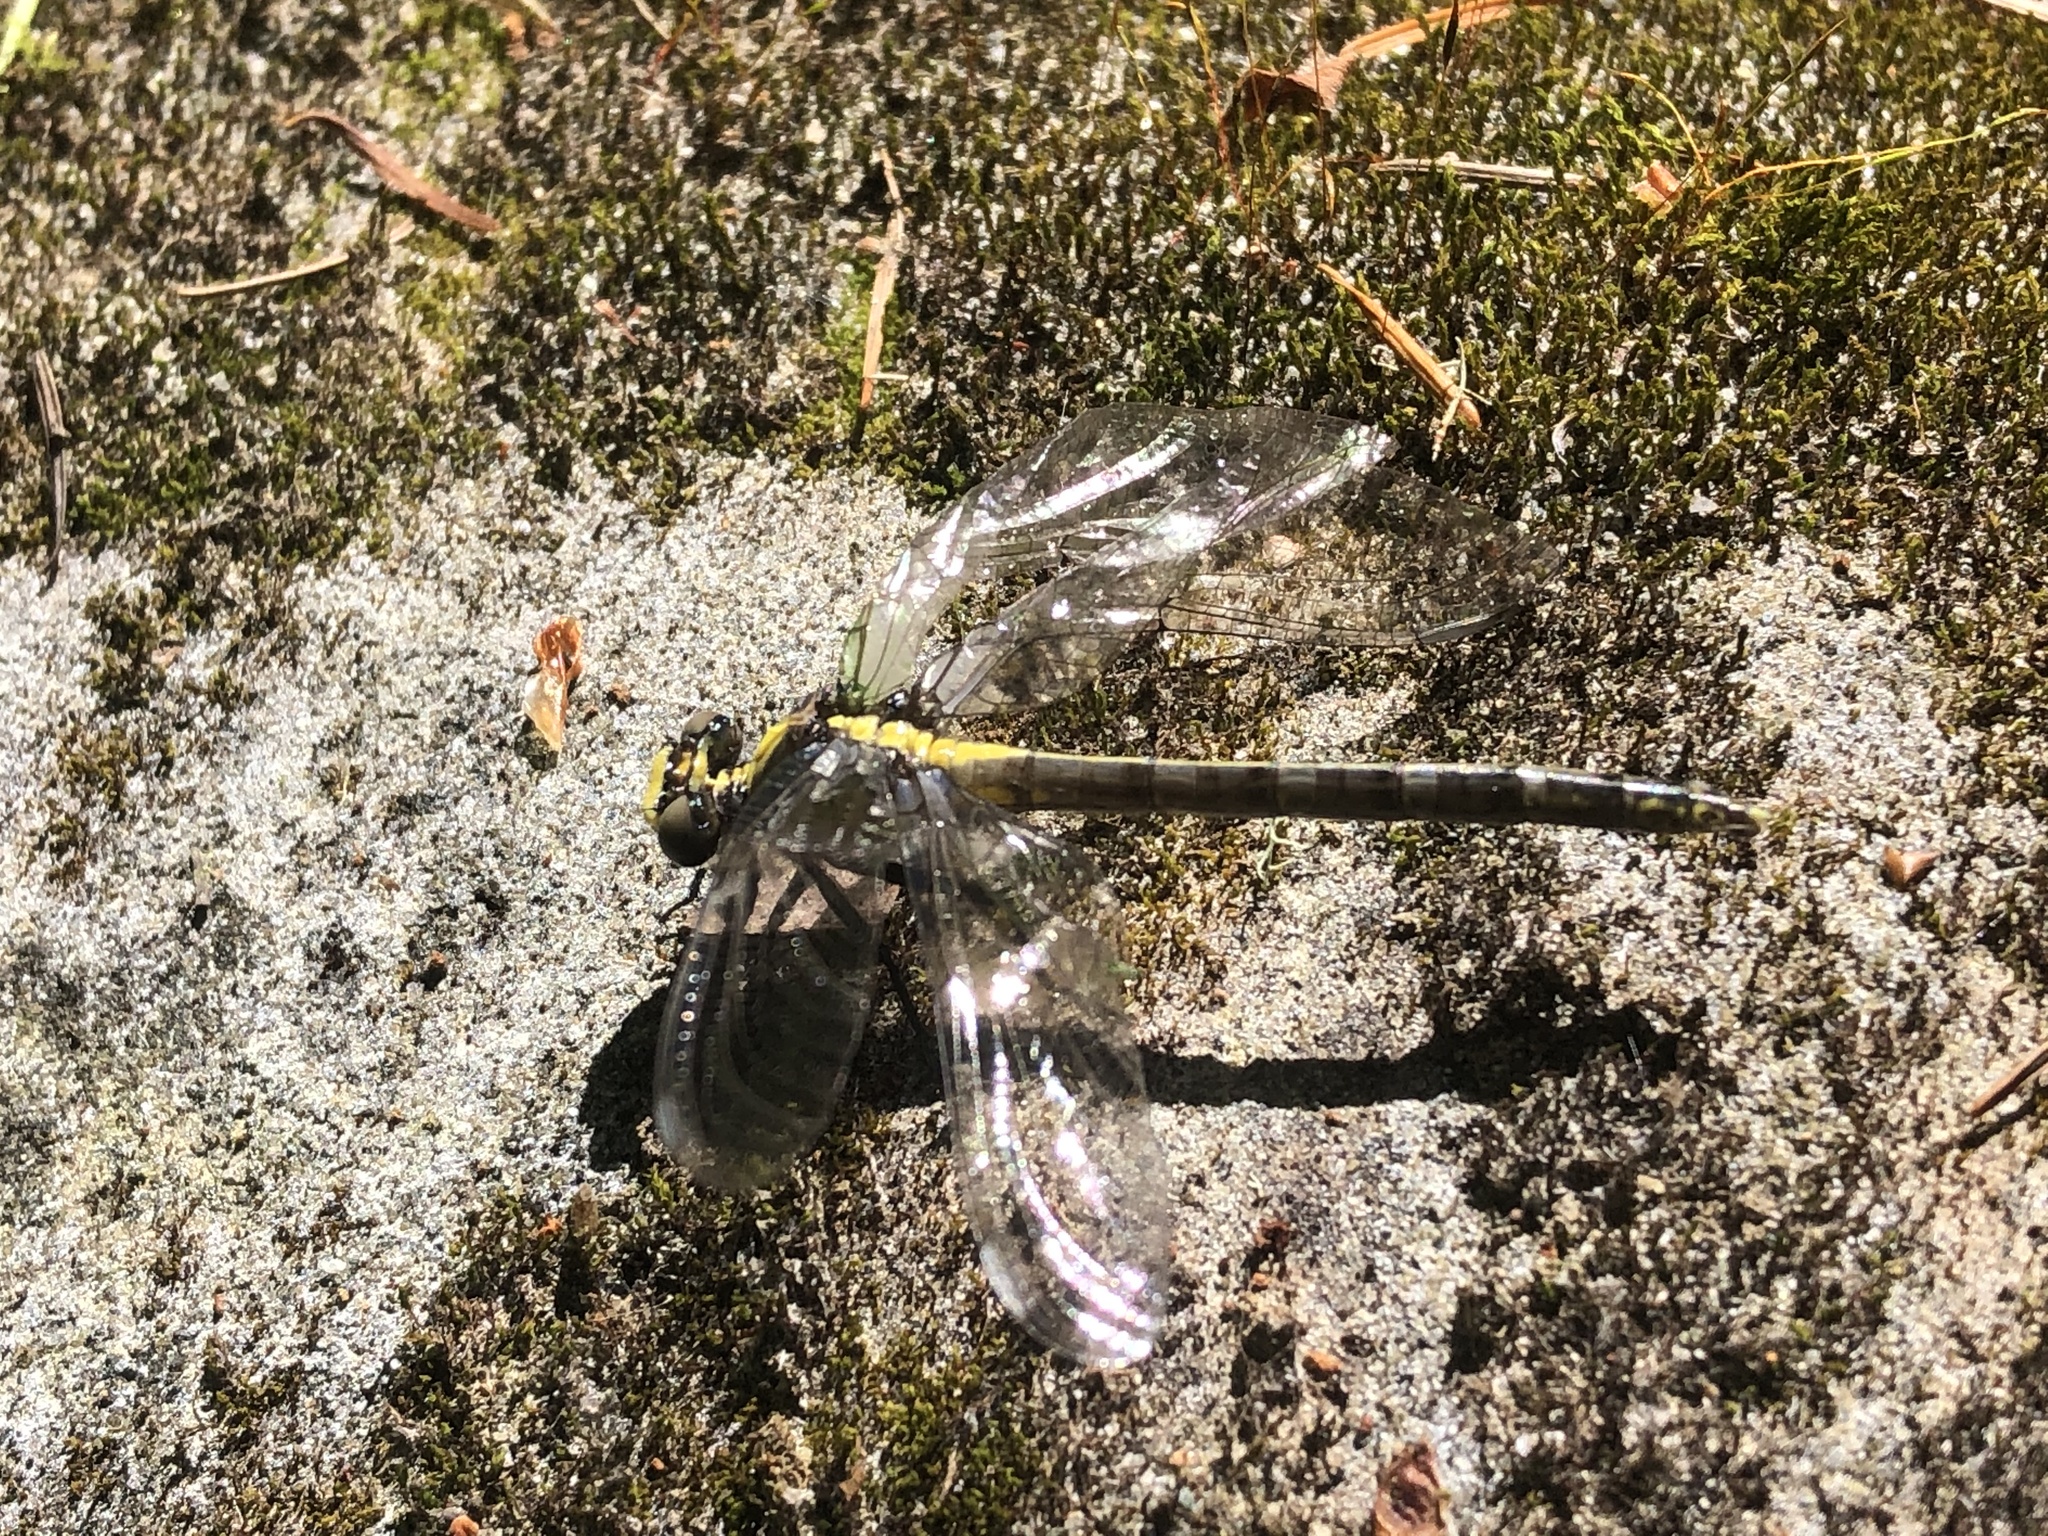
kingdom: Animalia
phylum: Arthropoda
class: Insecta
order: Odonata
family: Gomphidae
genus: Octogomphus
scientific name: Octogomphus specularis
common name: Grappletail
